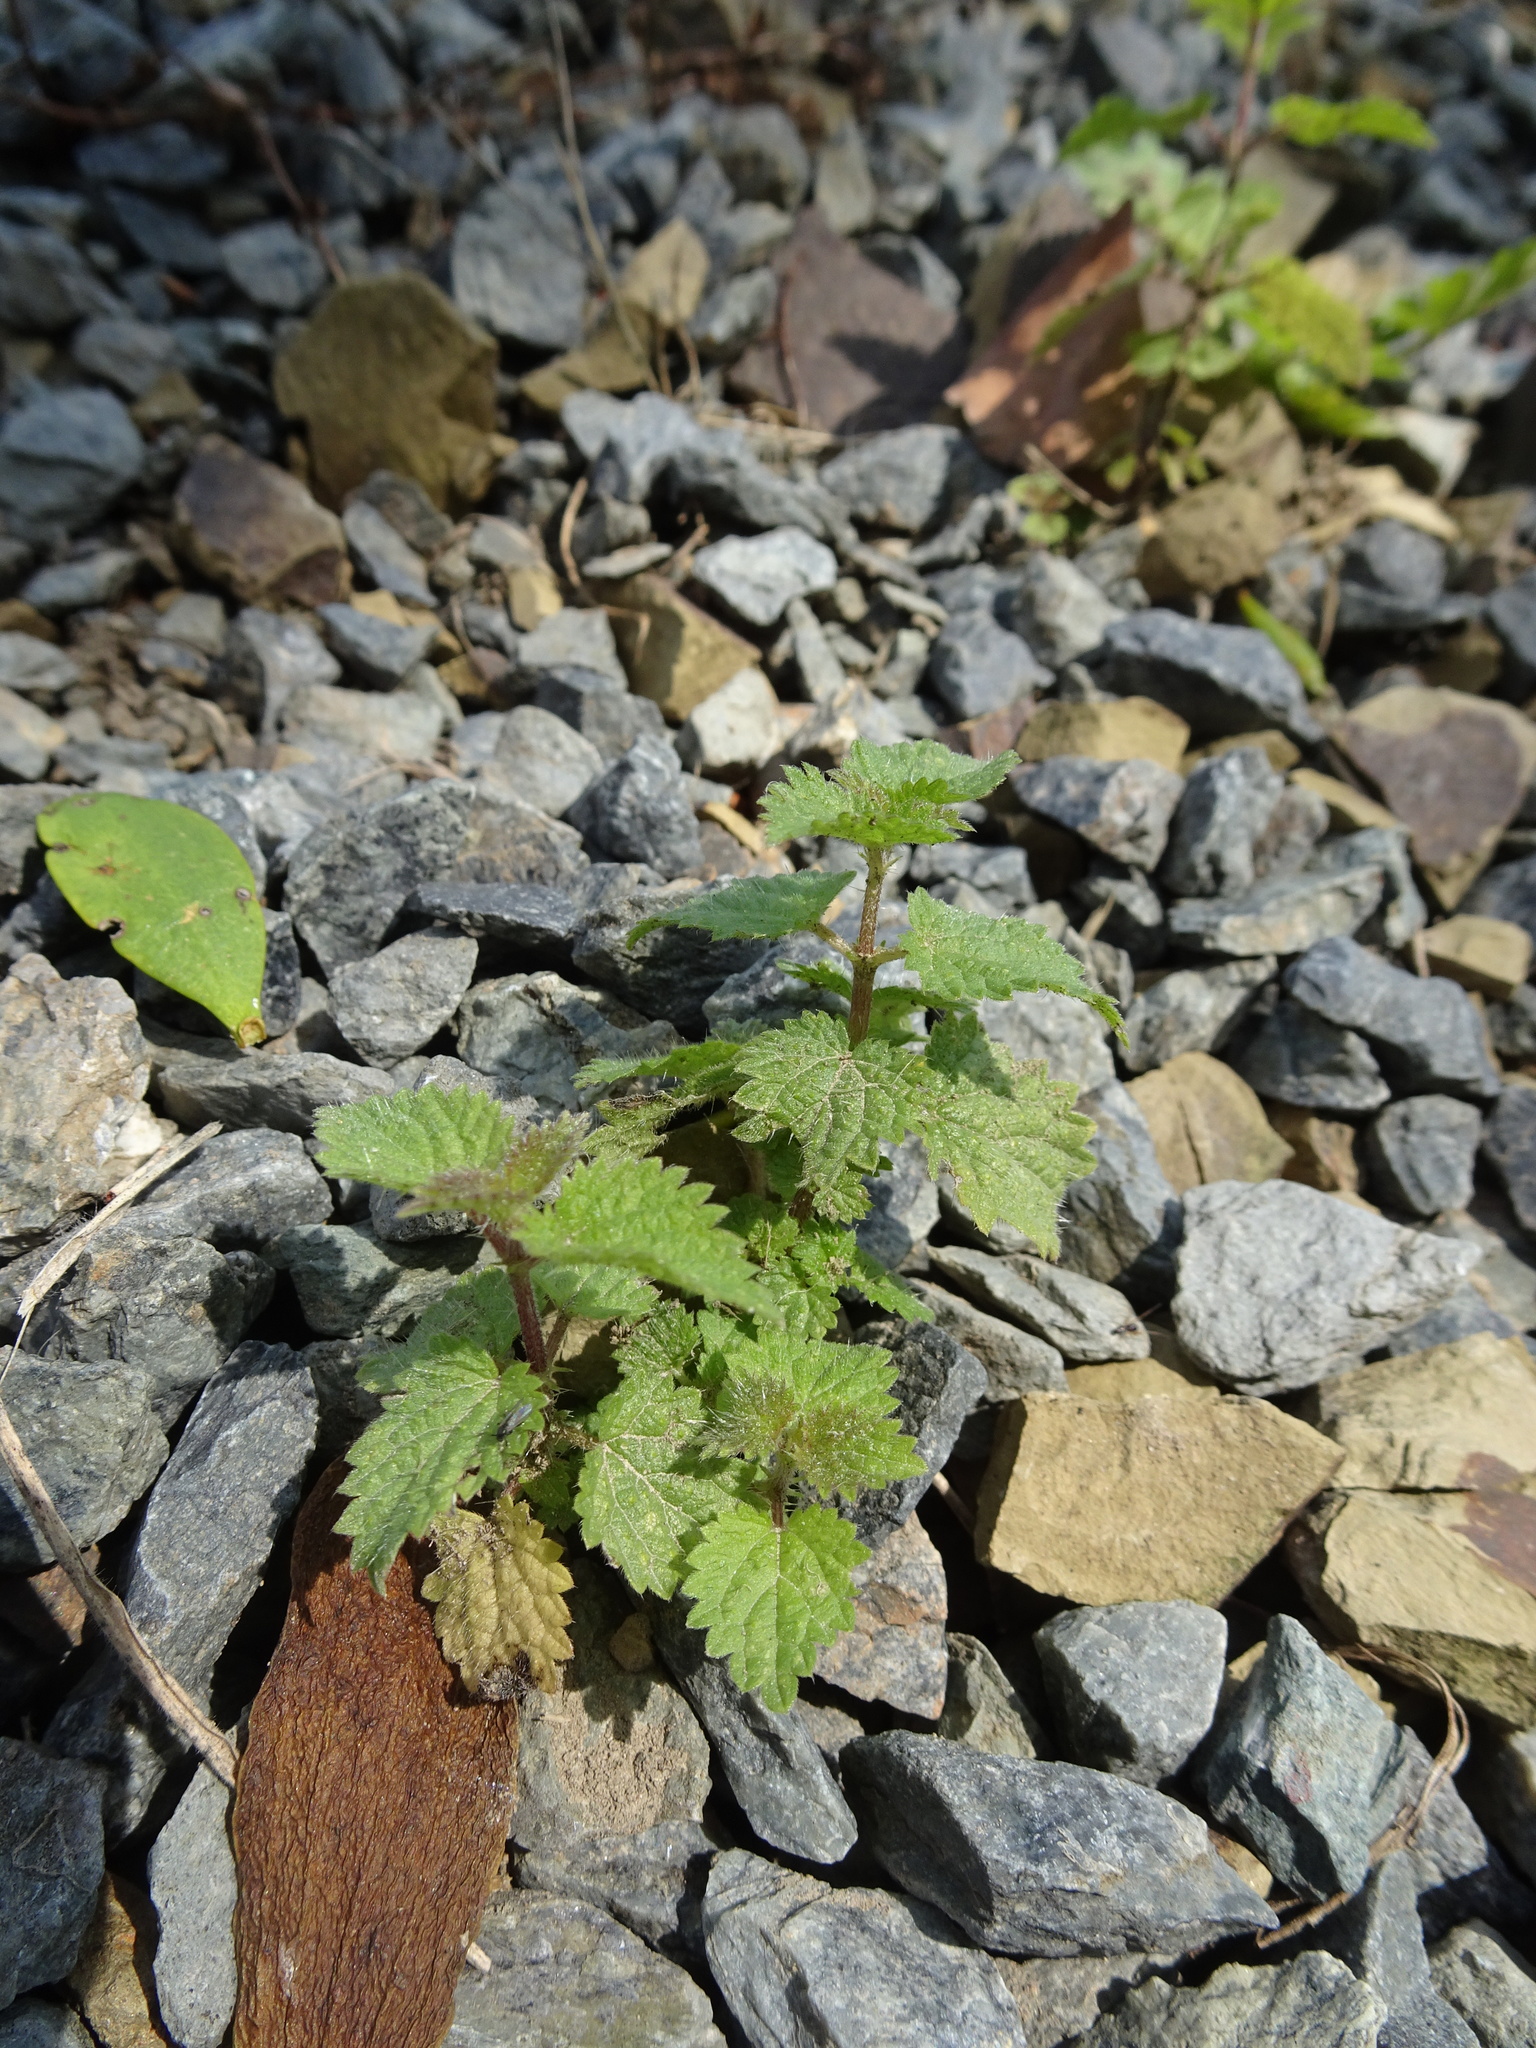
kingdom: Plantae
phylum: Tracheophyta
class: Magnoliopsida
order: Rosales
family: Urticaceae
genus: Urtica
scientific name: Urtica dioica
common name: Common nettle
